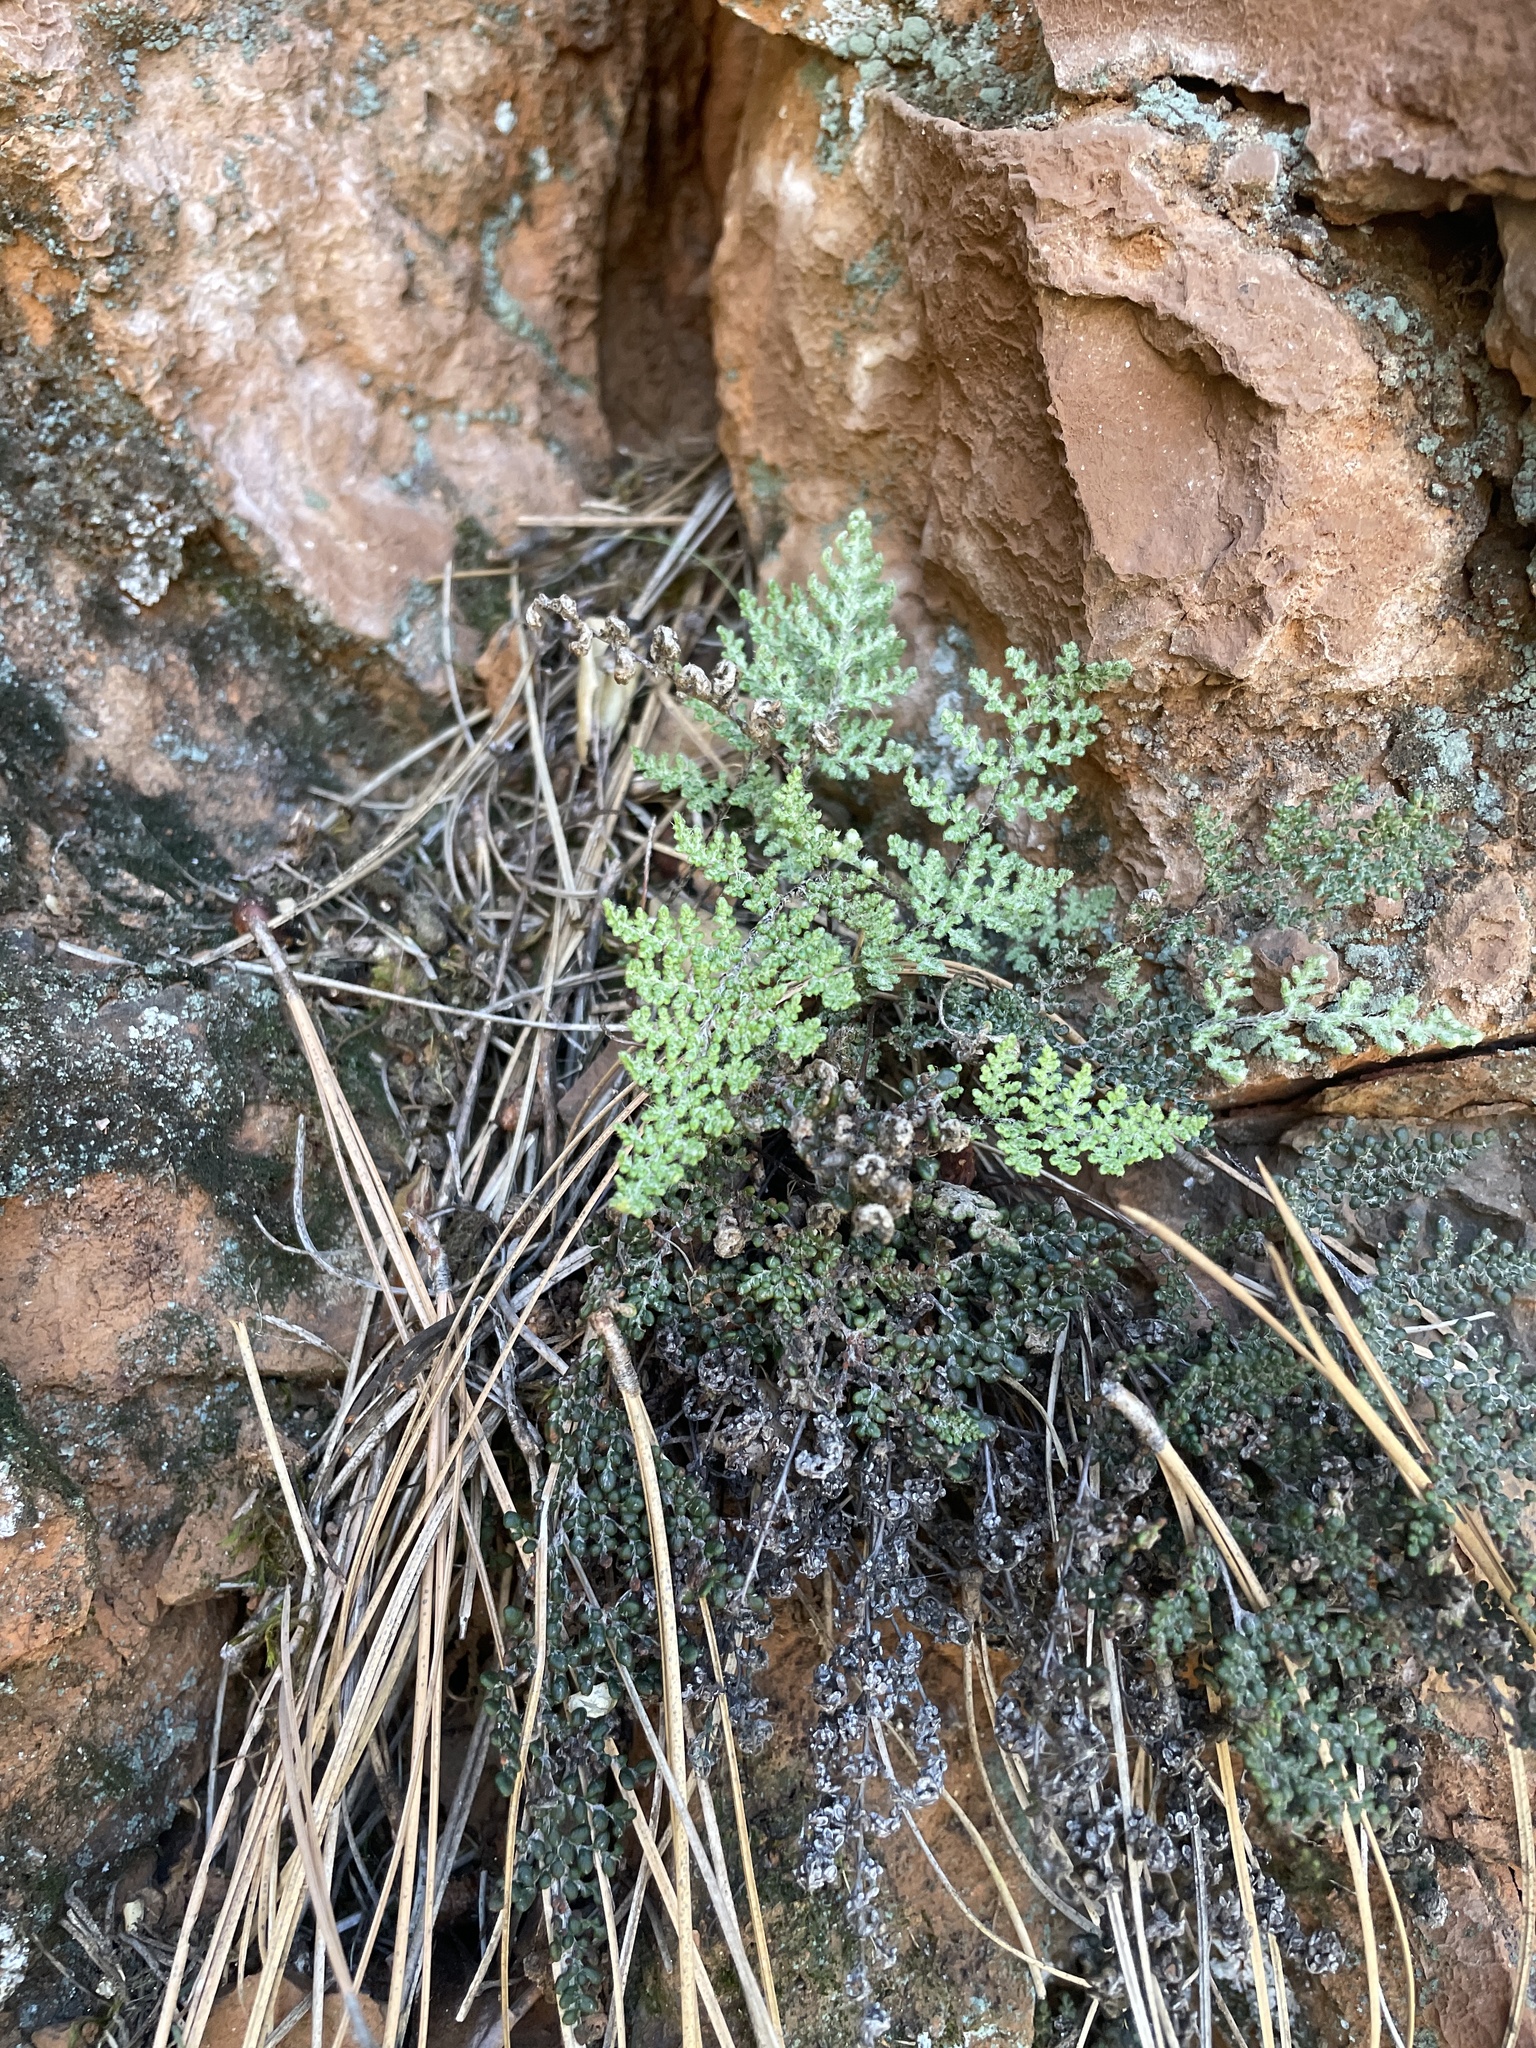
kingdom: Plantae
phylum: Tracheophyta
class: Polypodiopsida
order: Polypodiales
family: Pteridaceae
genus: Myriopteris
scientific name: Myriopteris intertexta
